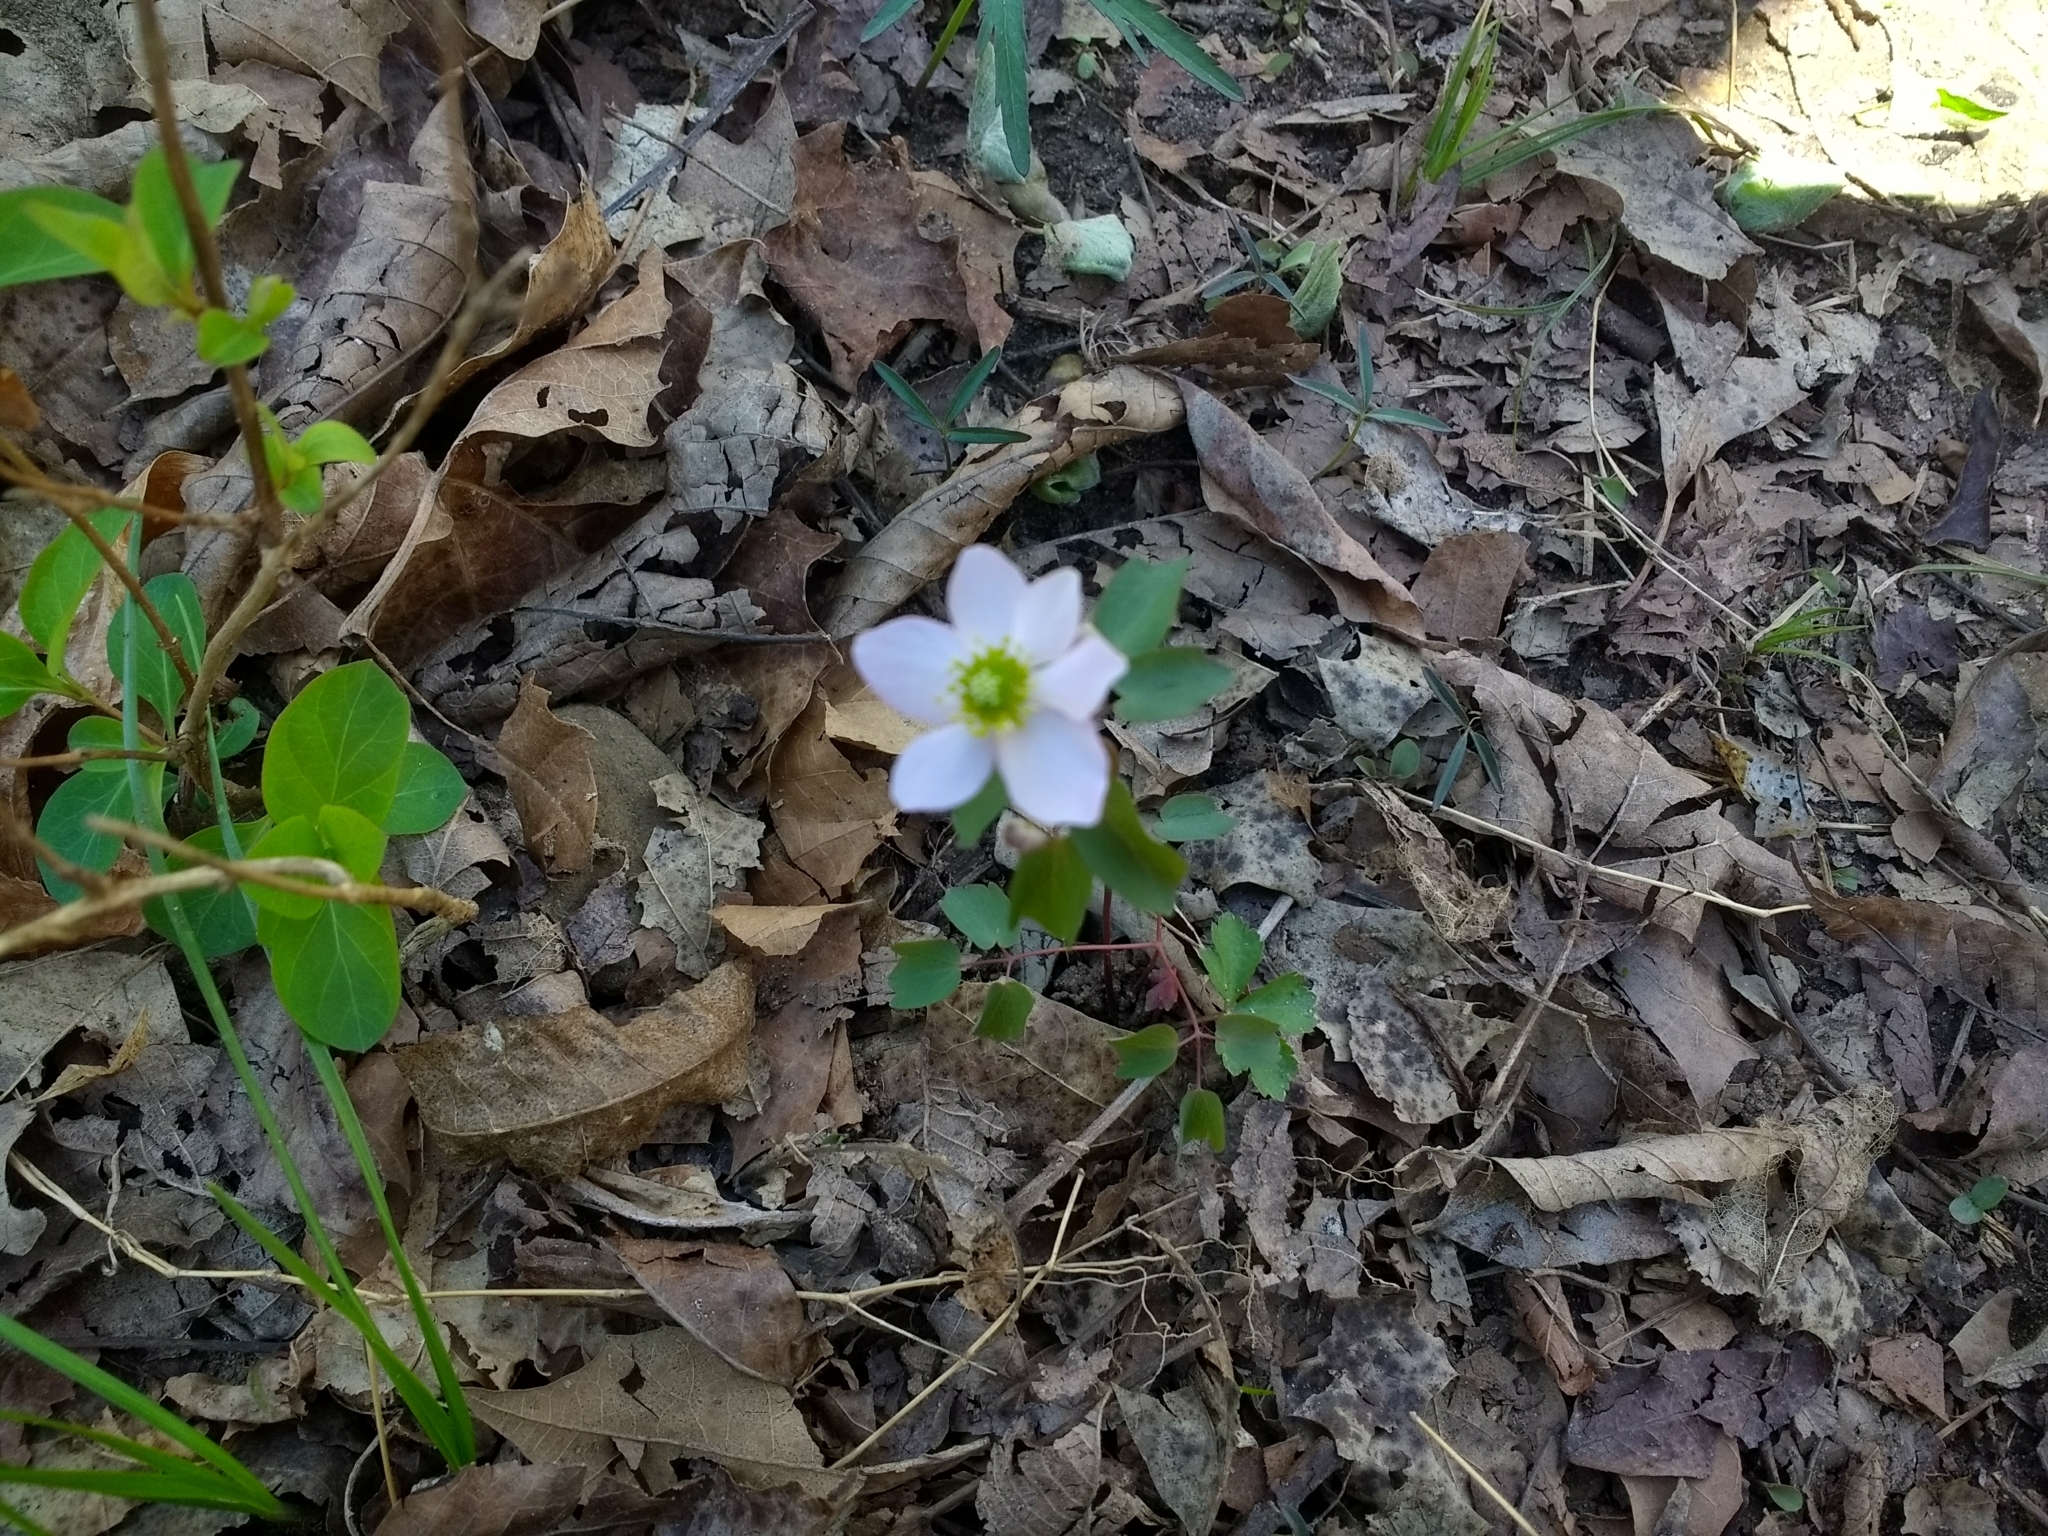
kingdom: Plantae
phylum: Tracheophyta
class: Magnoliopsida
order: Ranunculales
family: Ranunculaceae
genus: Thalictrum
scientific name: Thalictrum thalictroides
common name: Rue-anemone
